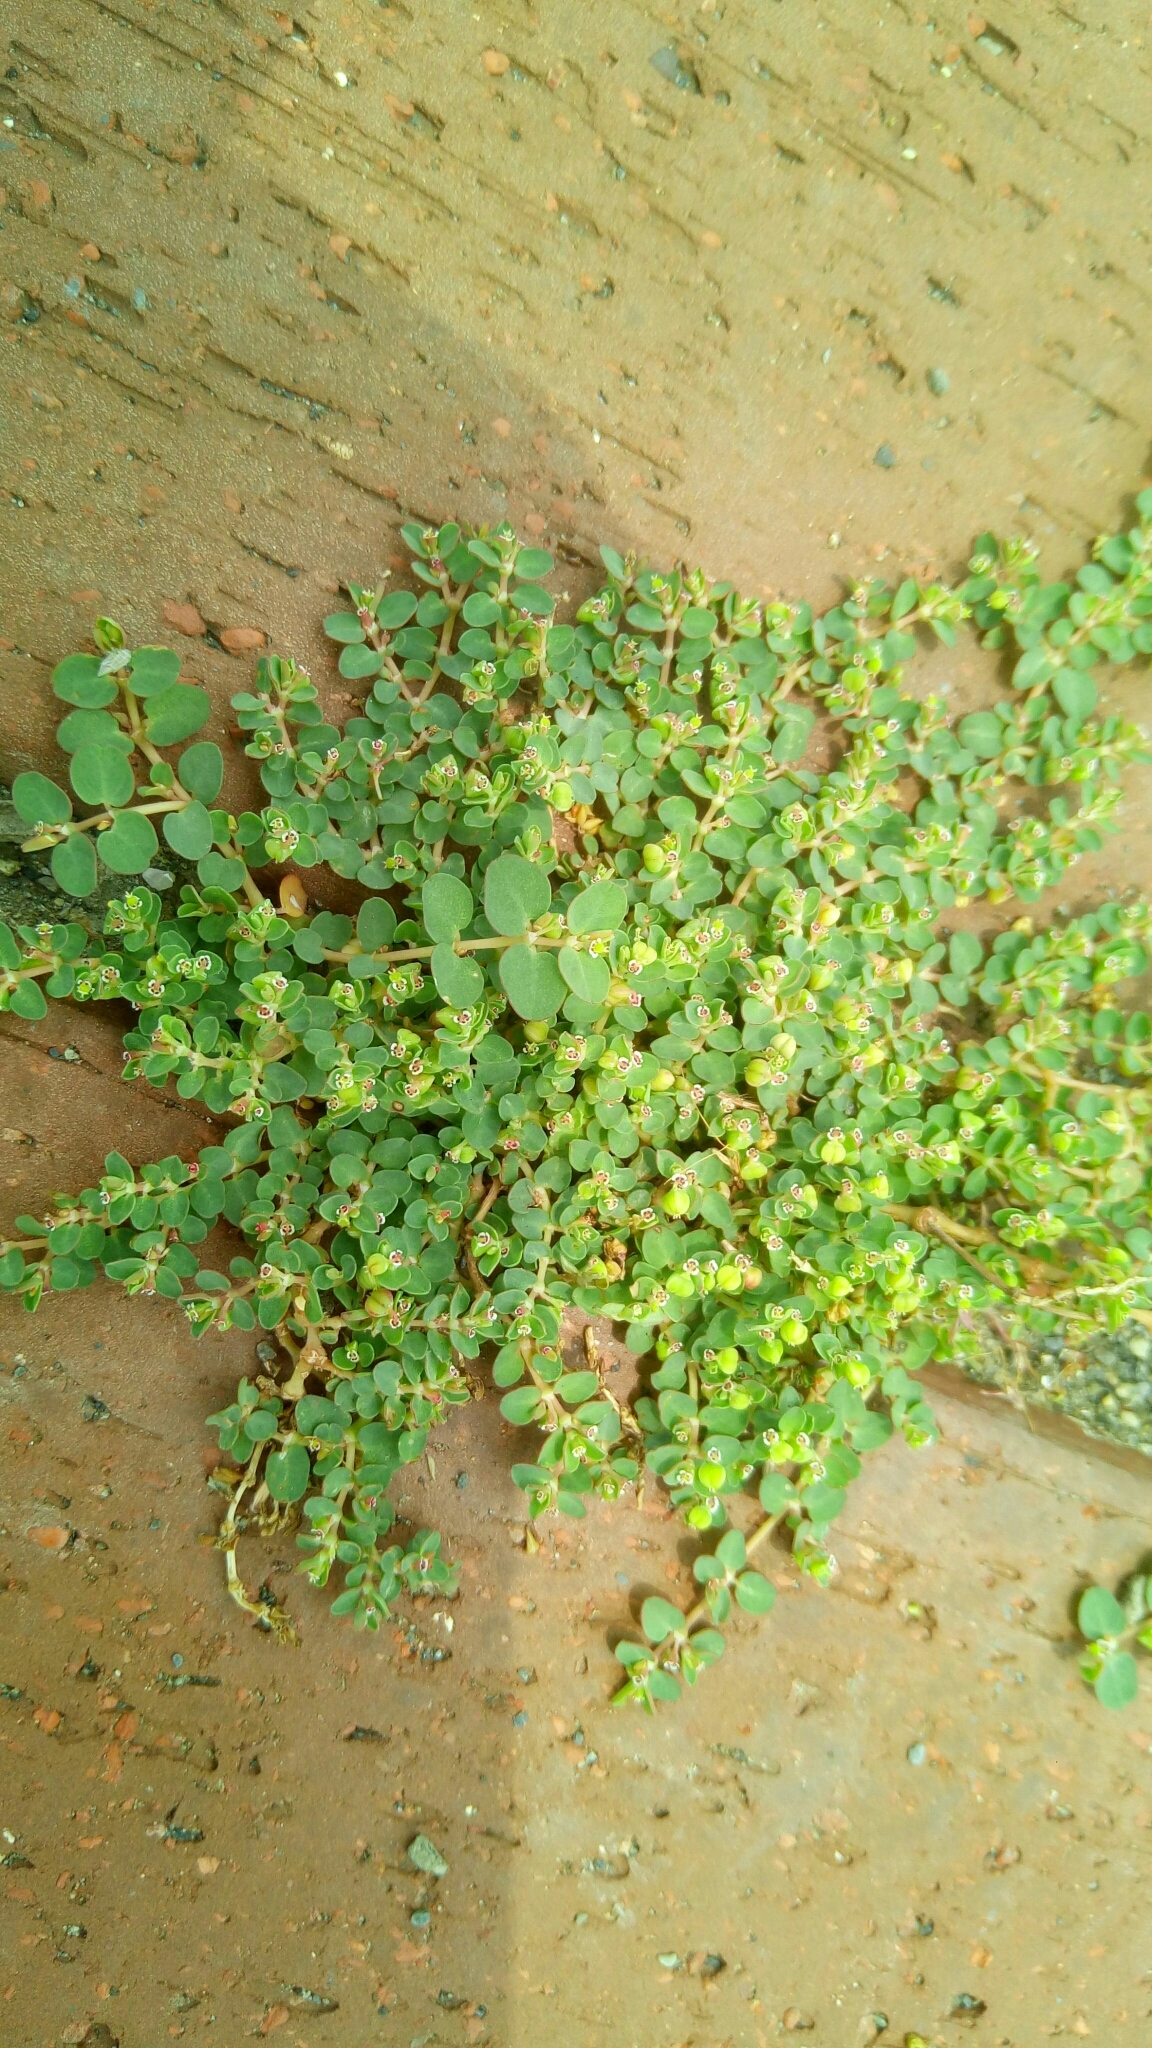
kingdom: Plantae
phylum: Tracheophyta
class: Magnoliopsida
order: Malpighiales
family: Euphorbiaceae
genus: Euphorbia
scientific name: Euphorbia serpens
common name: Matted sandmat
